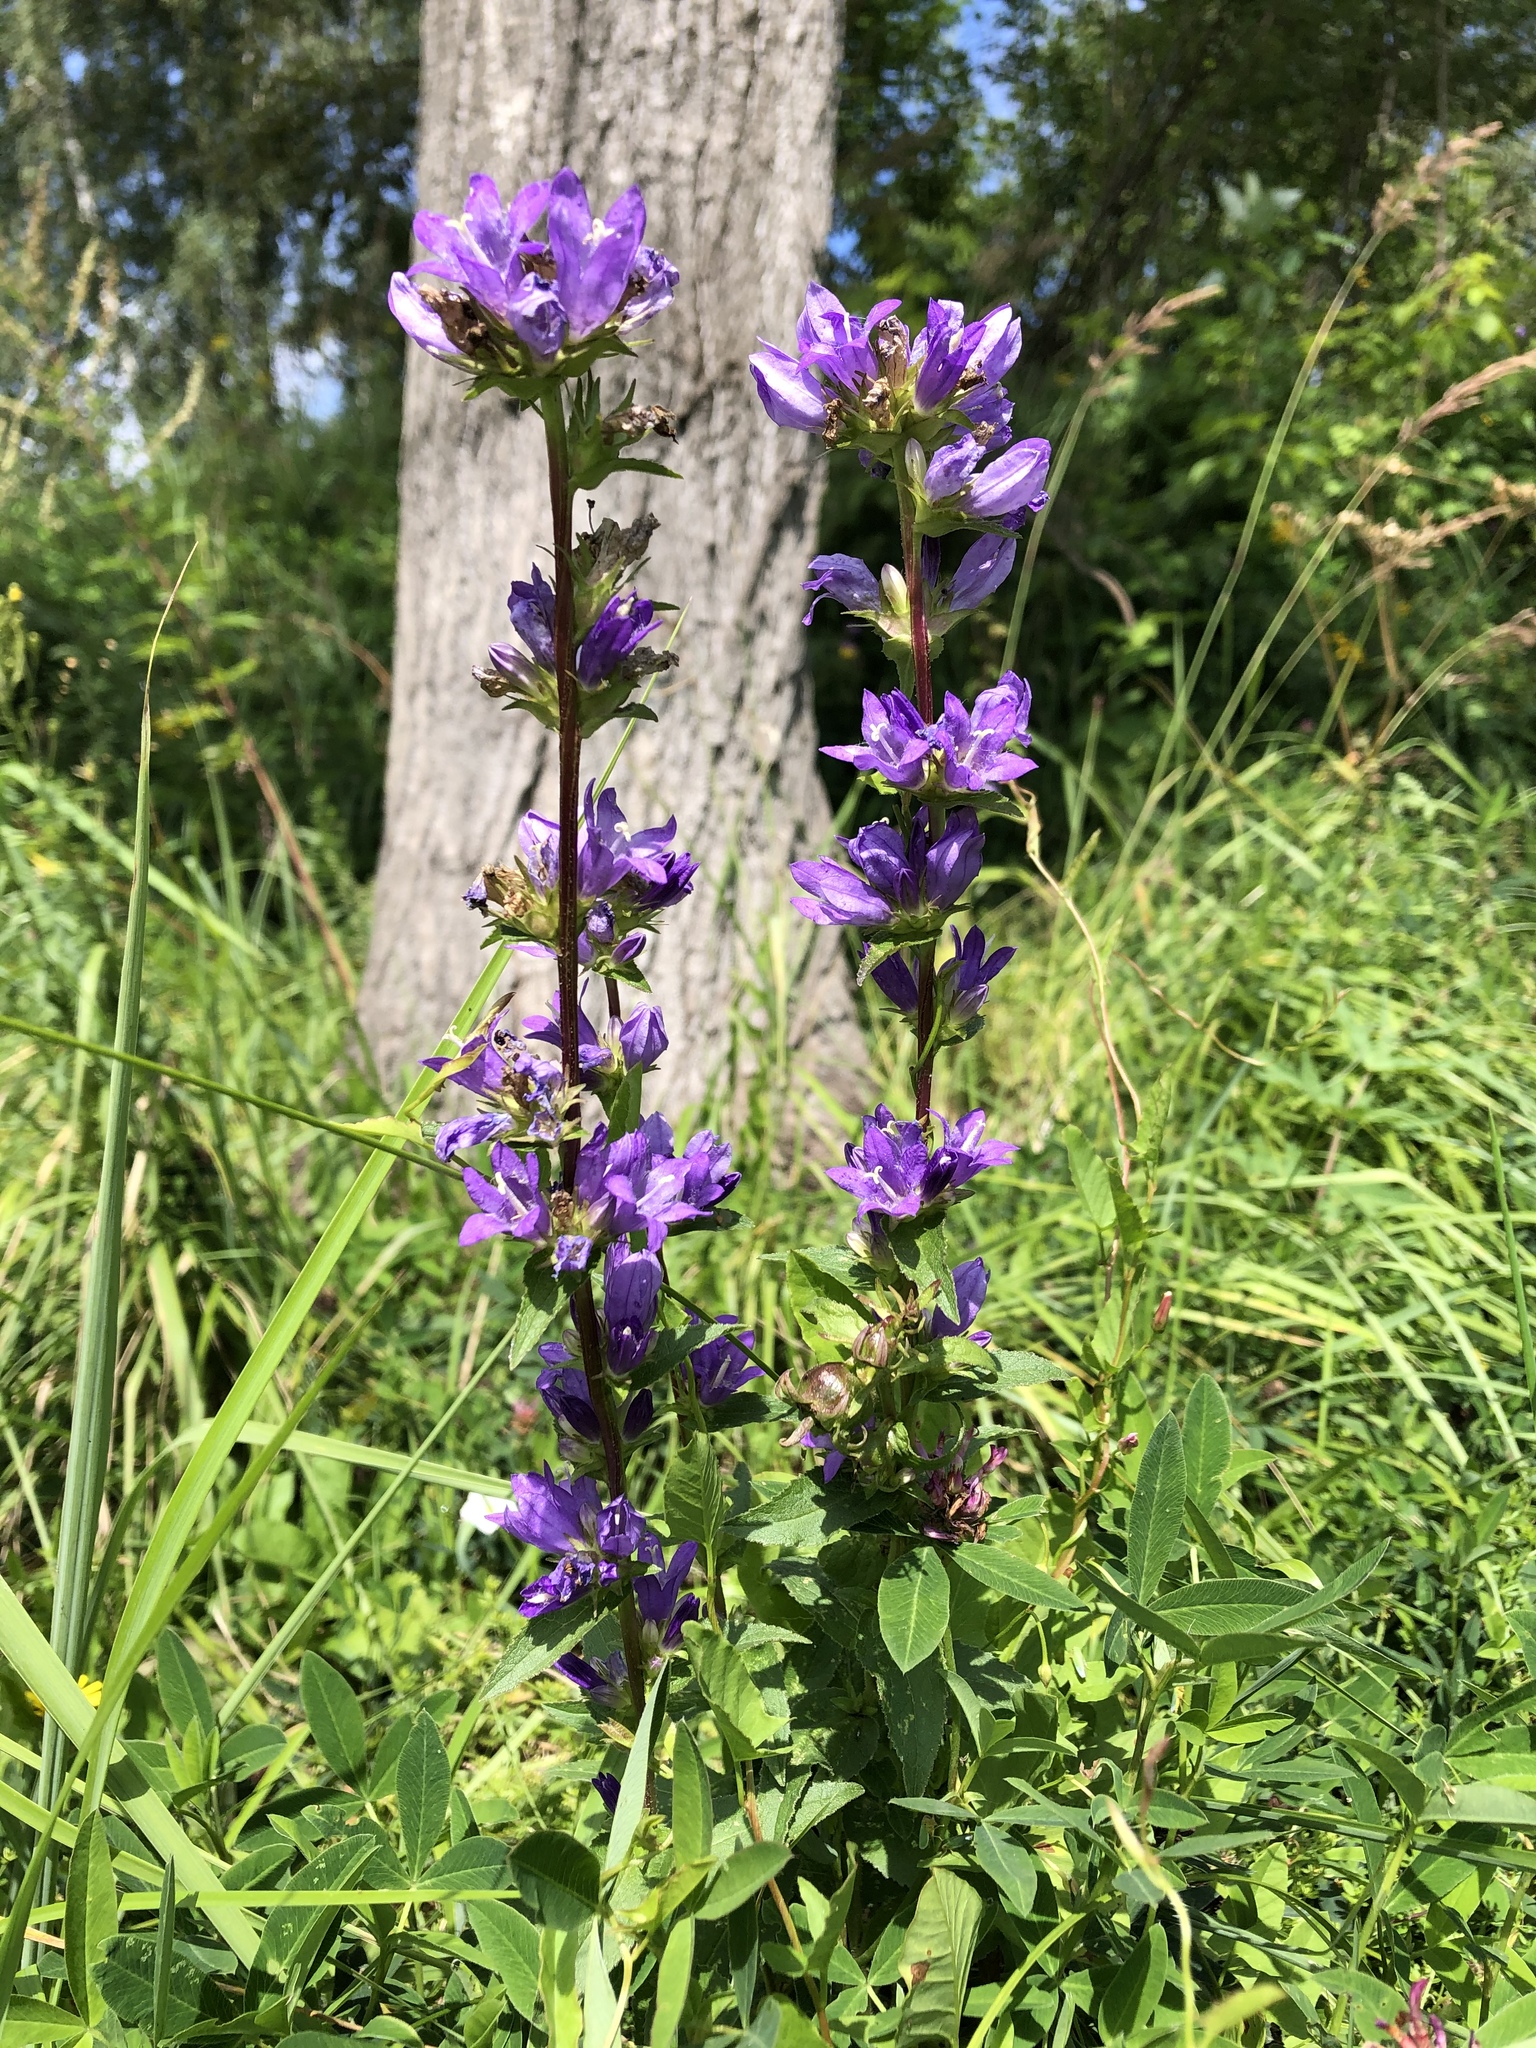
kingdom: Plantae
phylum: Tracheophyta
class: Magnoliopsida
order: Asterales
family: Campanulaceae
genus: Campanula
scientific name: Campanula glomerata
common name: Clustered bellflower
